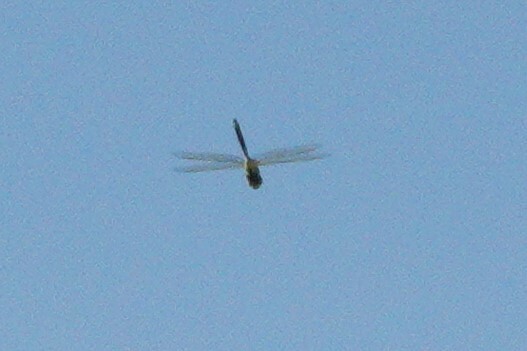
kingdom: Animalia
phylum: Arthropoda
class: Insecta
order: Odonata
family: Aeshnidae
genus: Anax
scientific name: Anax junius
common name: Common green darner
